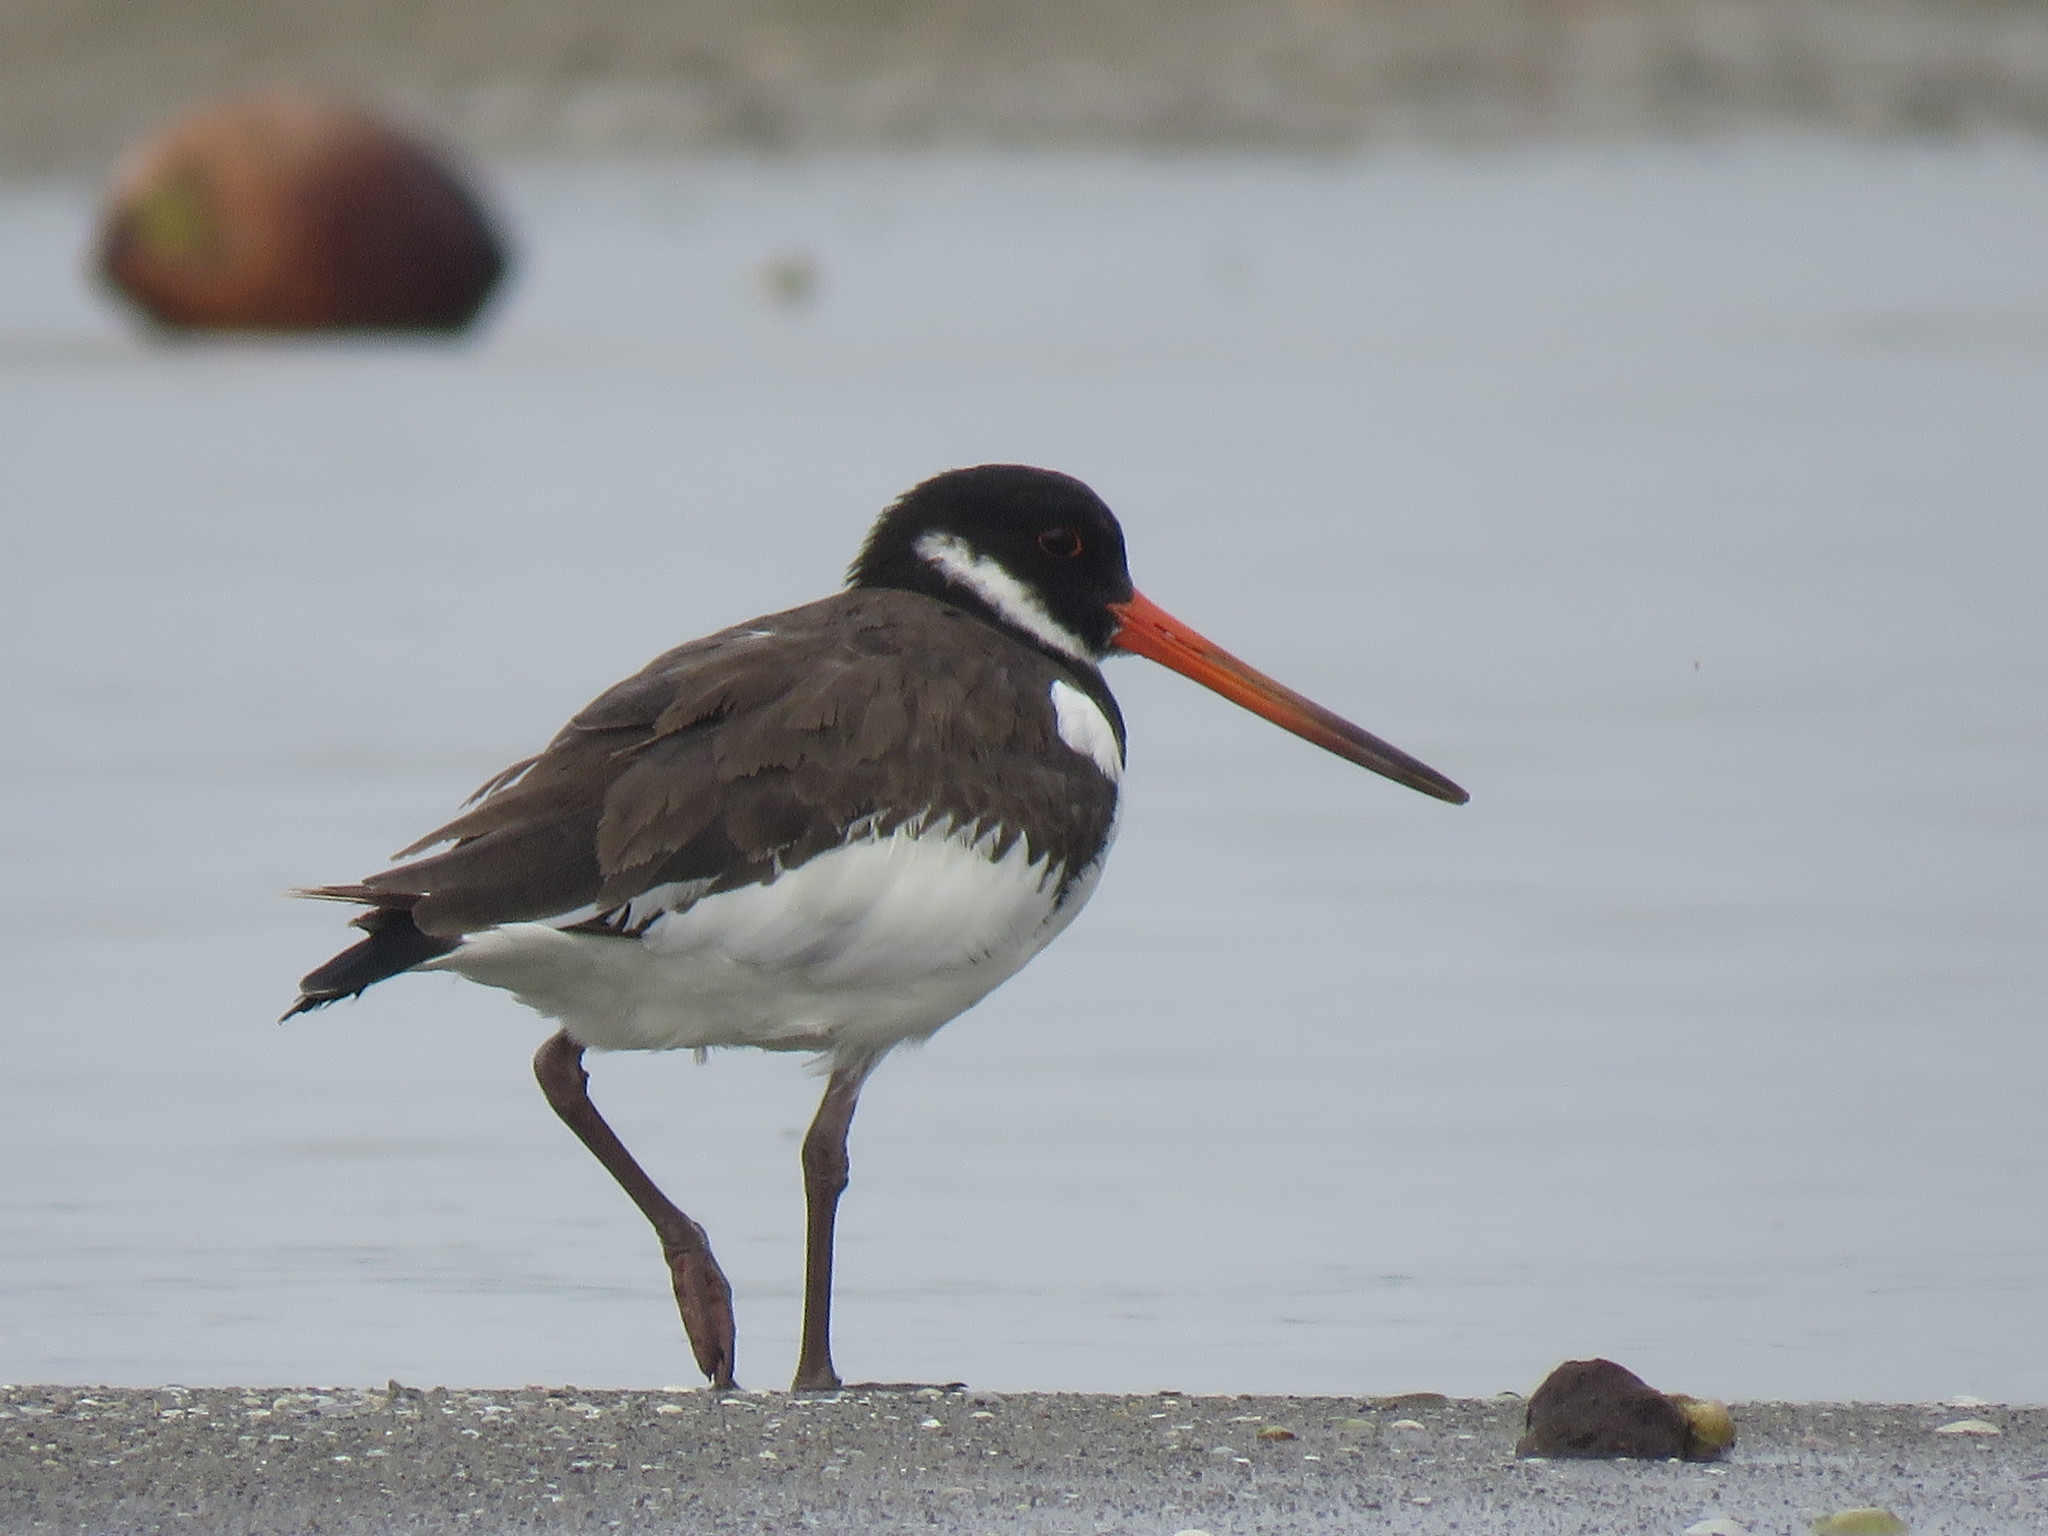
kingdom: Animalia
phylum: Chordata
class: Aves
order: Charadriiformes
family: Haematopodidae
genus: Haematopus
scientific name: Haematopus ostralegus
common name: Eurasian oystercatcher
